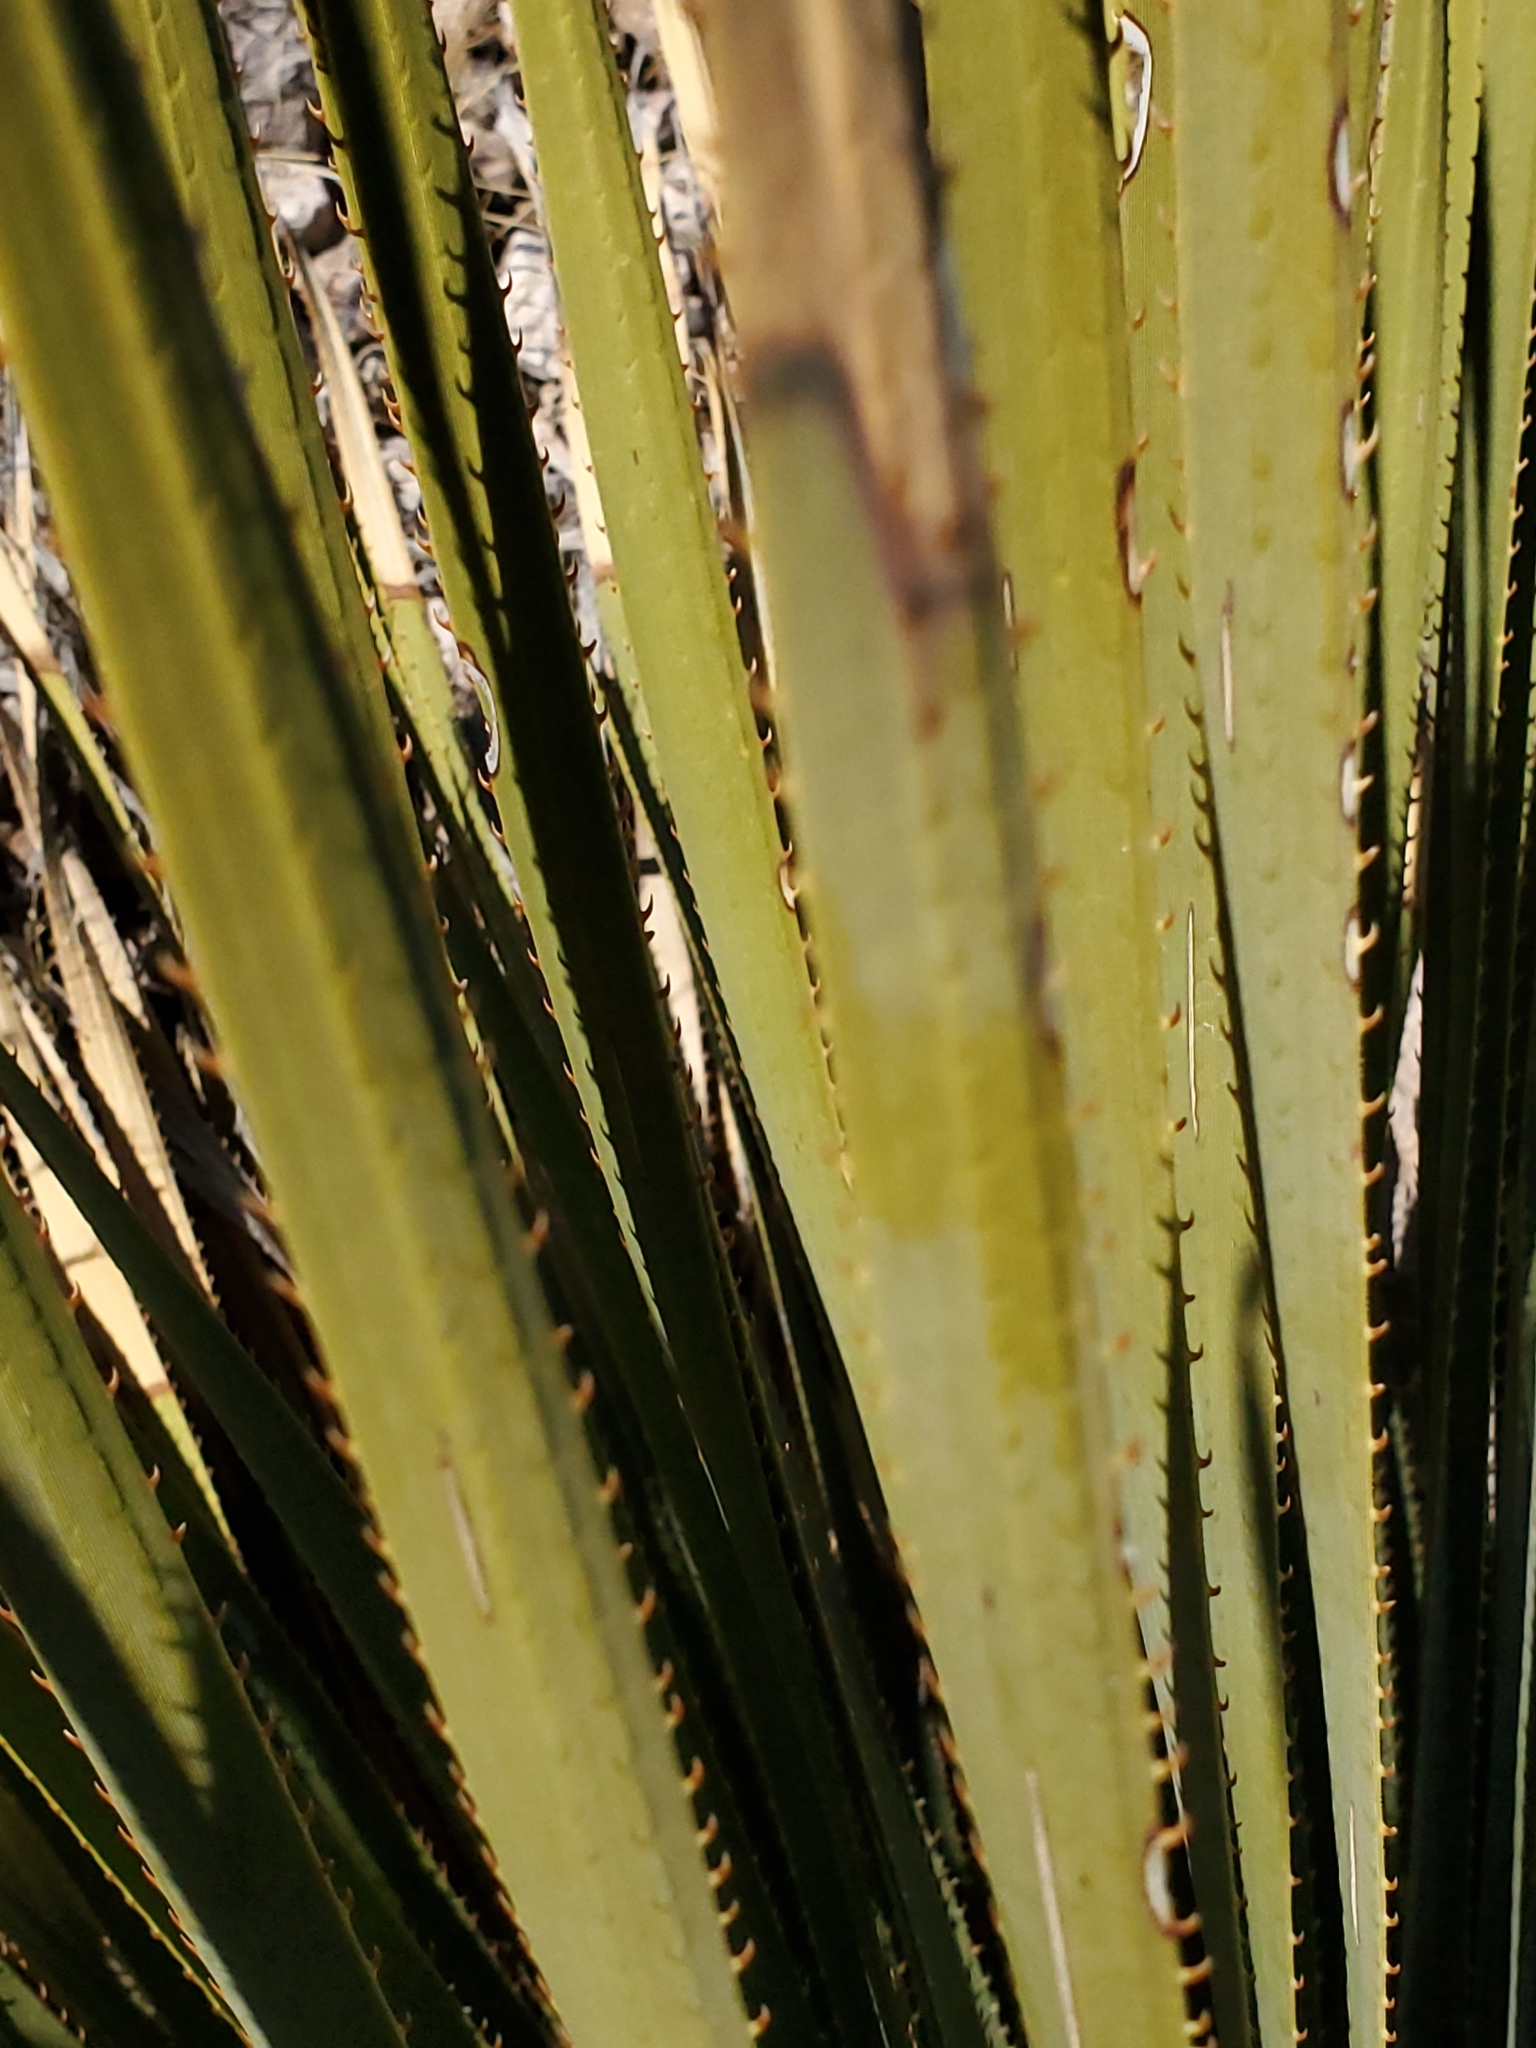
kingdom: Plantae
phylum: Tracheophyta
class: Liliopsida
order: Asparagales
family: Asparagaceae
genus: Dasylirion
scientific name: Dasylirion wheeleri
